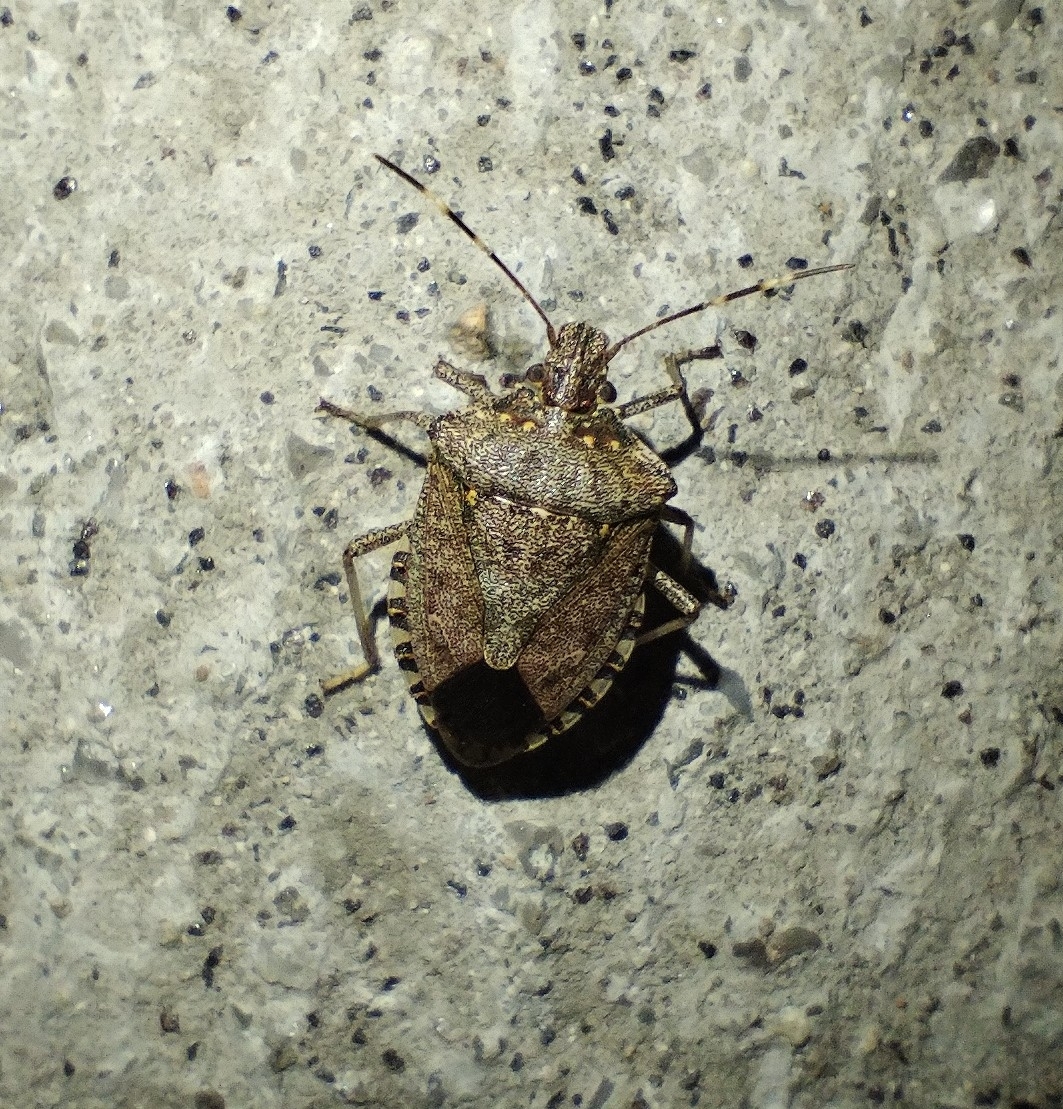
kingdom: Animalia
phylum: Arthropoda
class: Insecta
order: Hemiptera
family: Pentatomidae
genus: Halyomorpha
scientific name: Halyomorpha halys
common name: Brown marmorated stink bug
